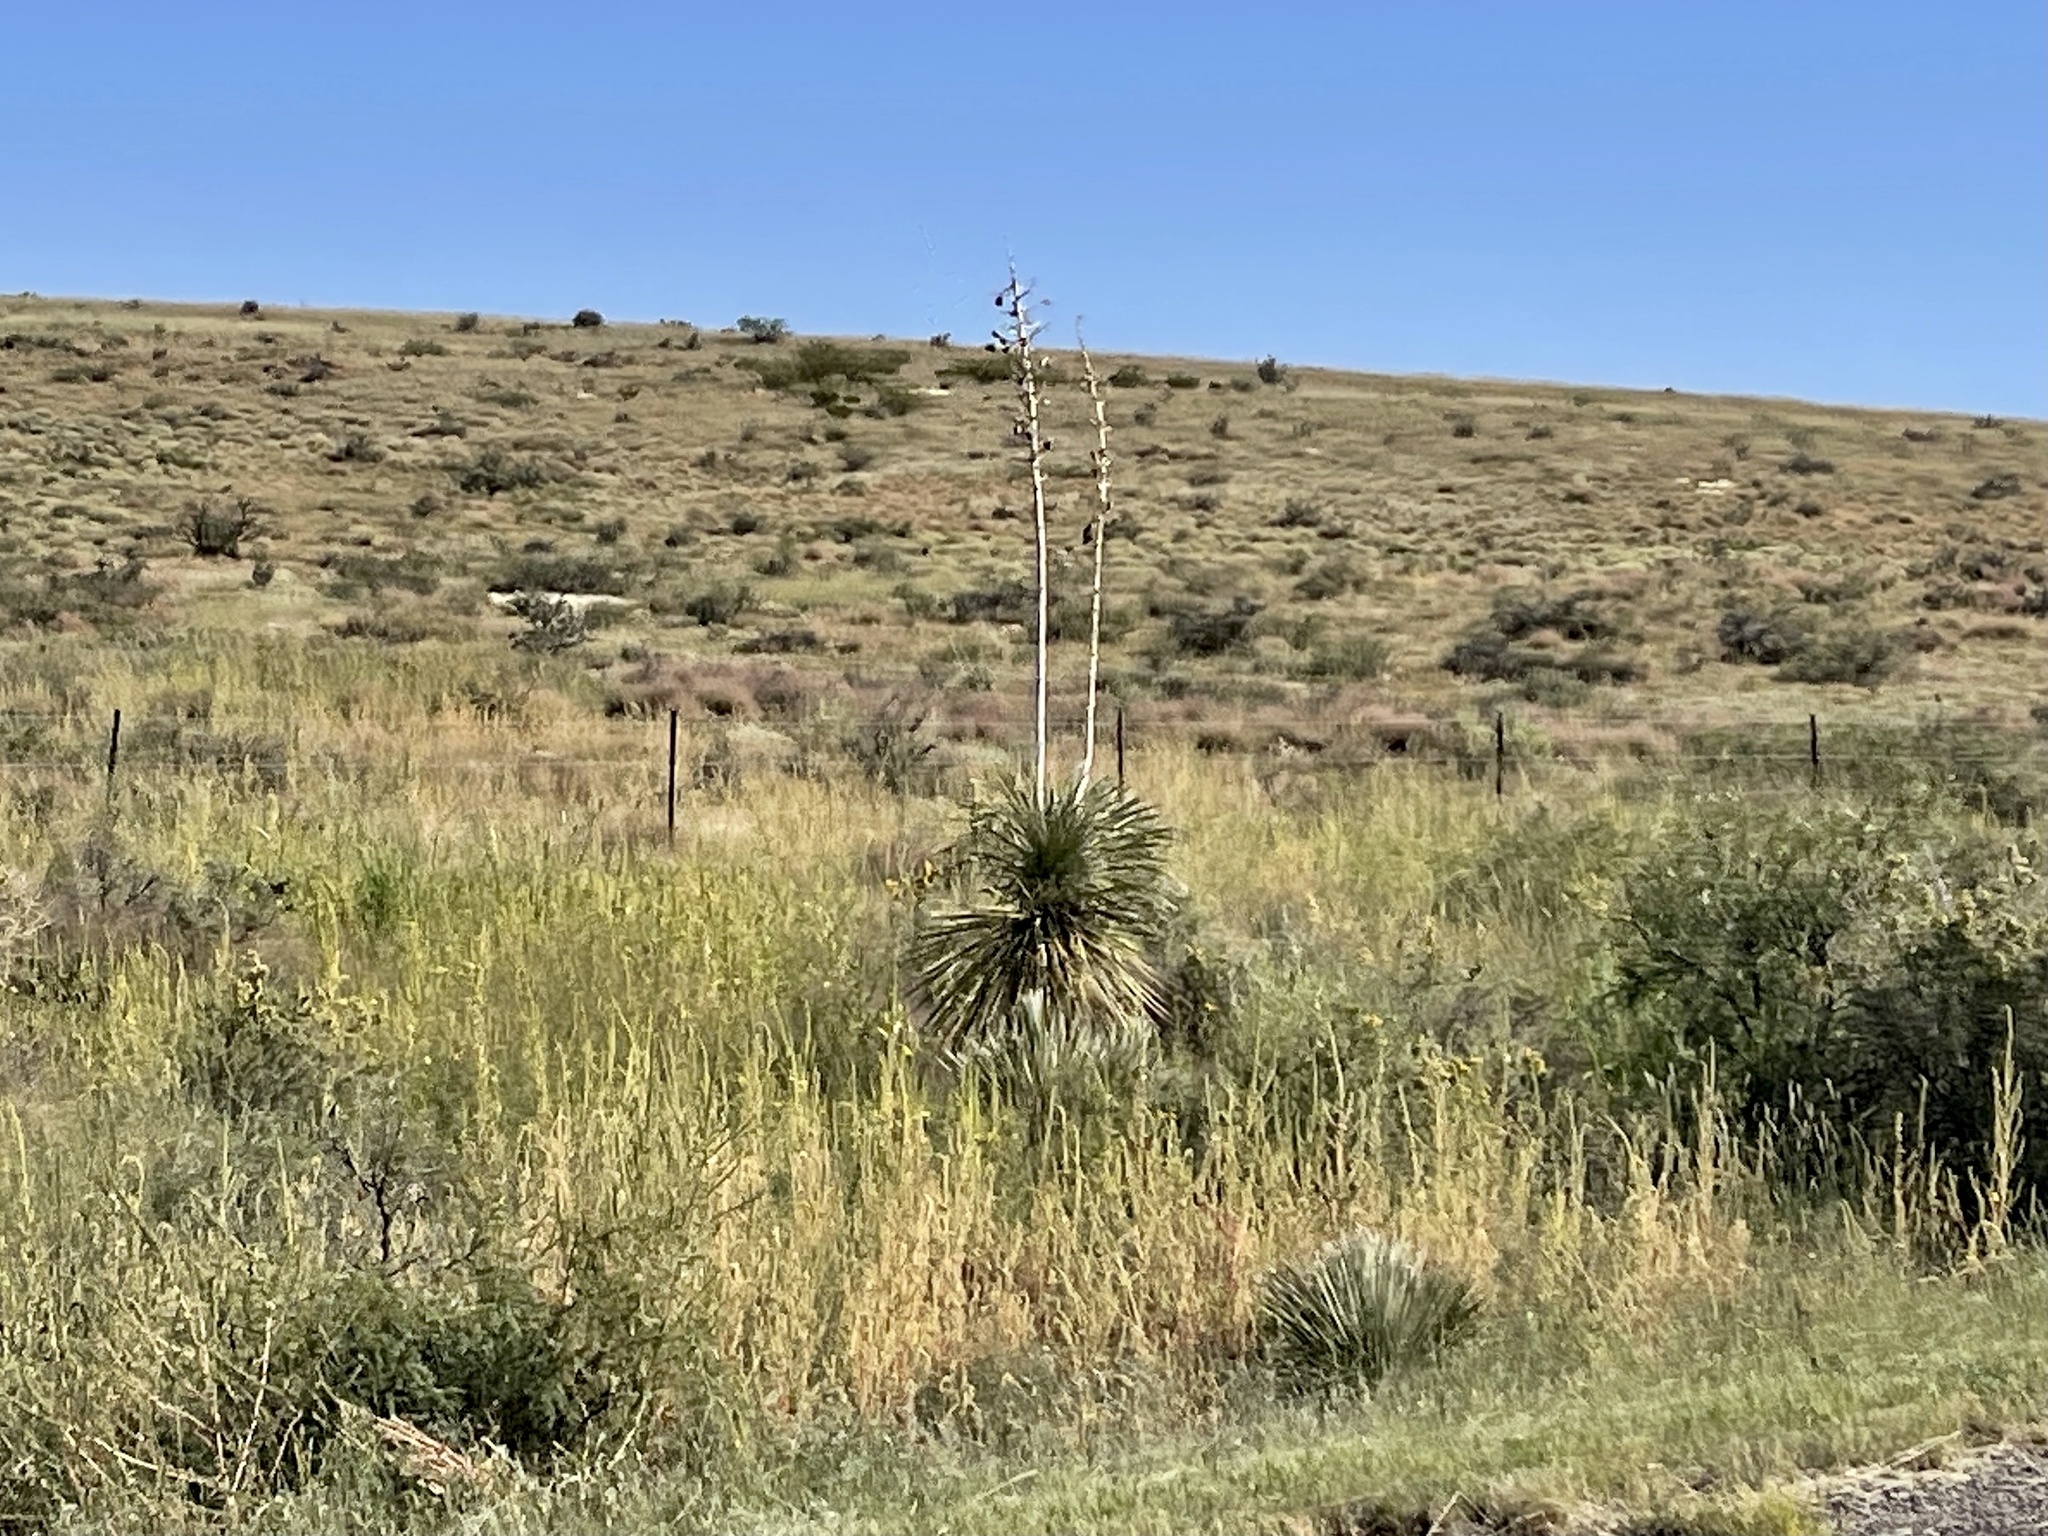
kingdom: Plantae
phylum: Tracheophyta
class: Liliopsida
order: Asparagales
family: Asparagaceae
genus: Yucca
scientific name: Yucca elata
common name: Palmella
